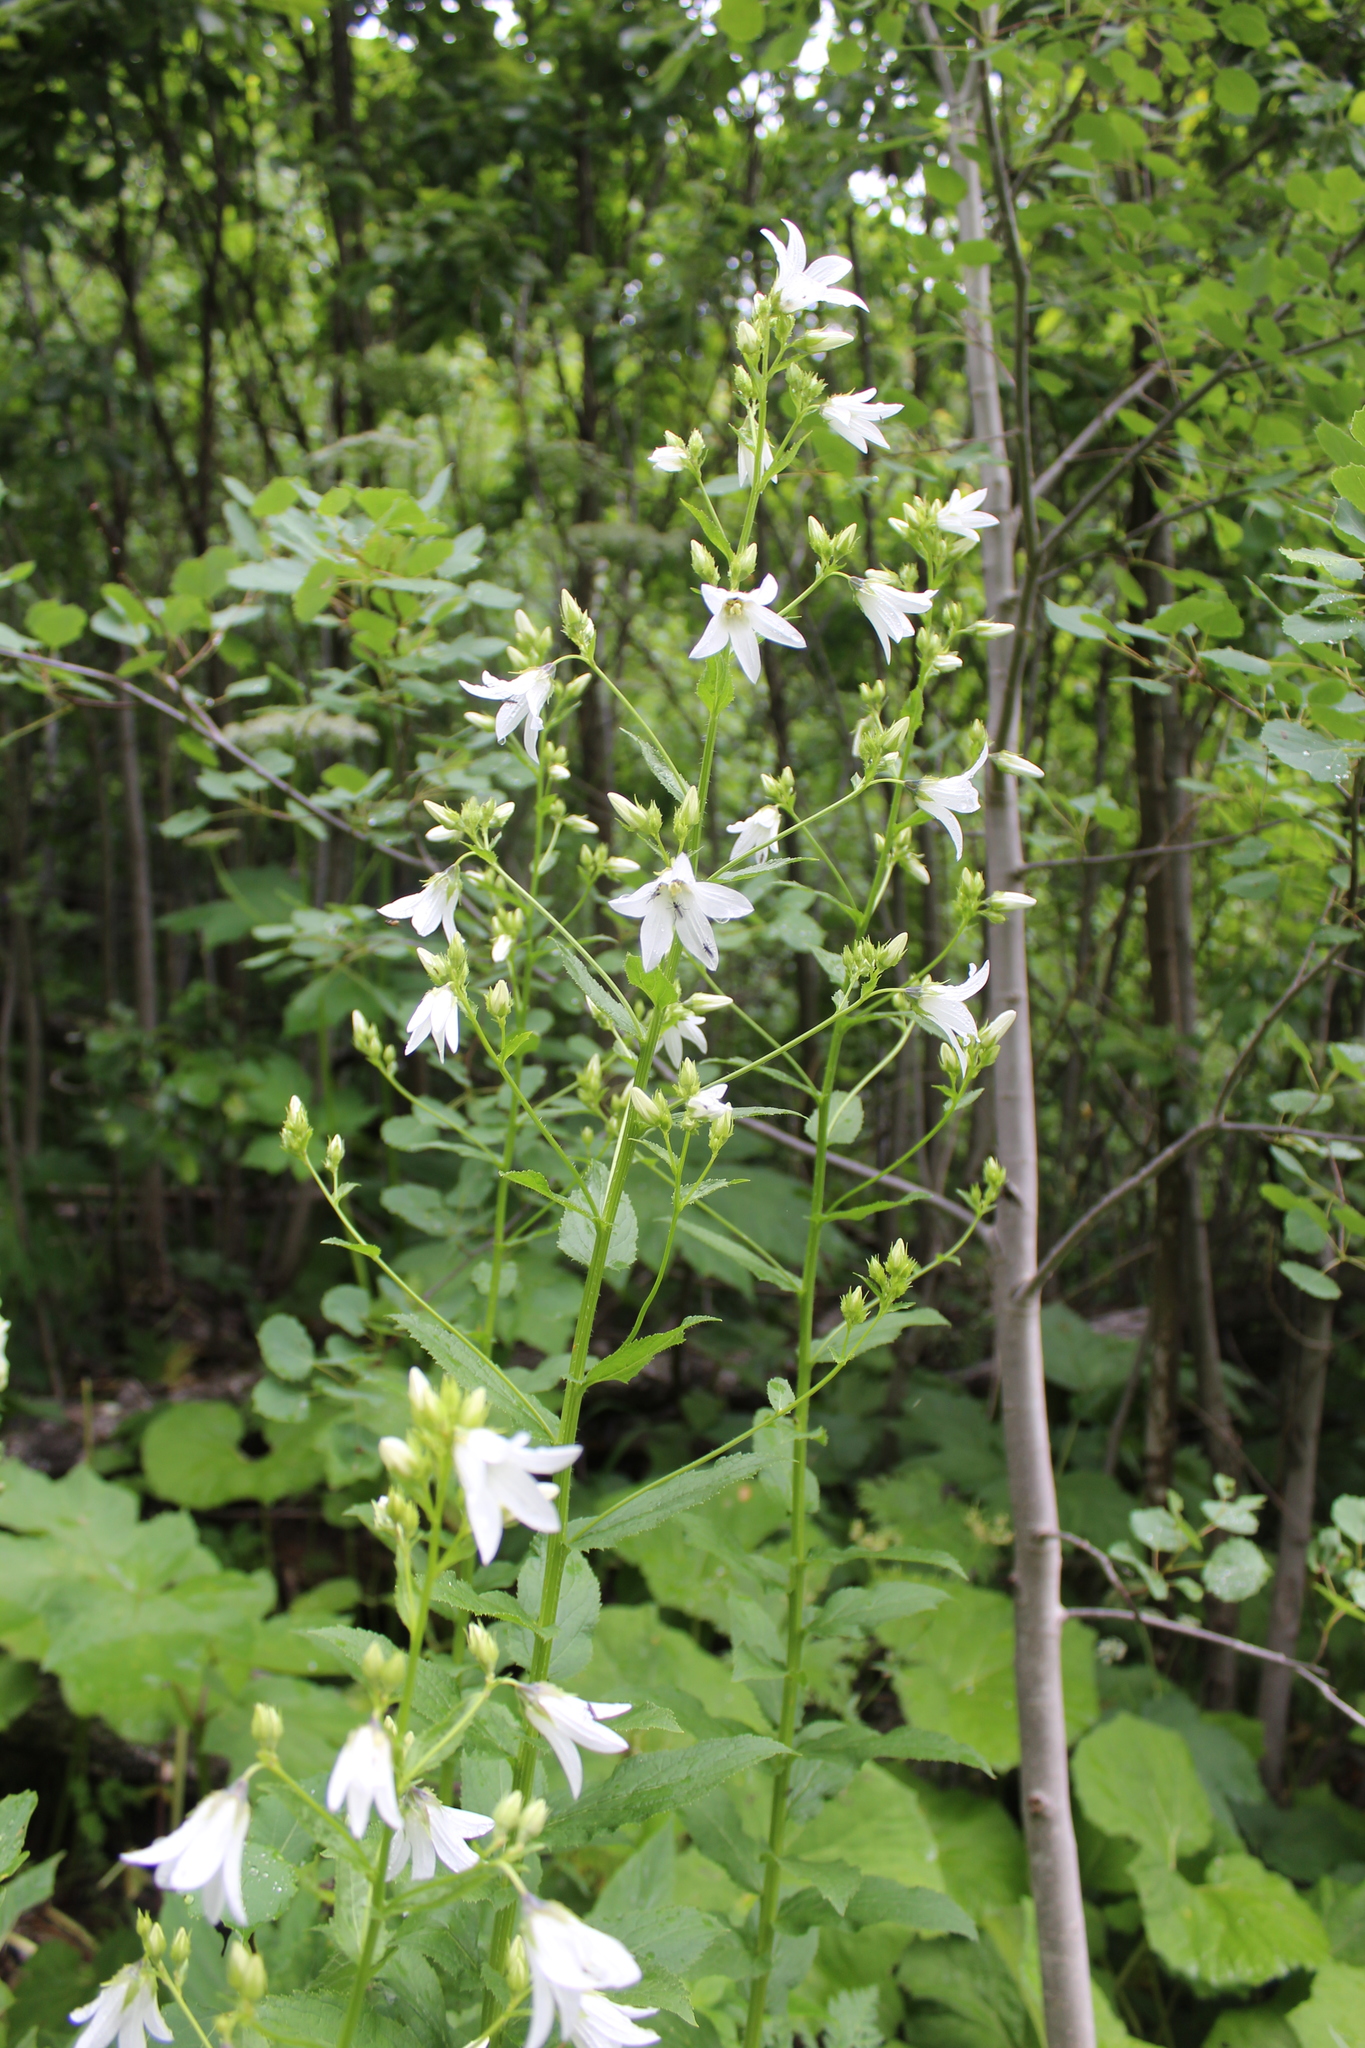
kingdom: Plantae
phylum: Tracheophyta
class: Magnoliopsida
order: Asterales
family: Campanulaceae
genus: Campanula
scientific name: Campanula lactiflora
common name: Milky bellflower
